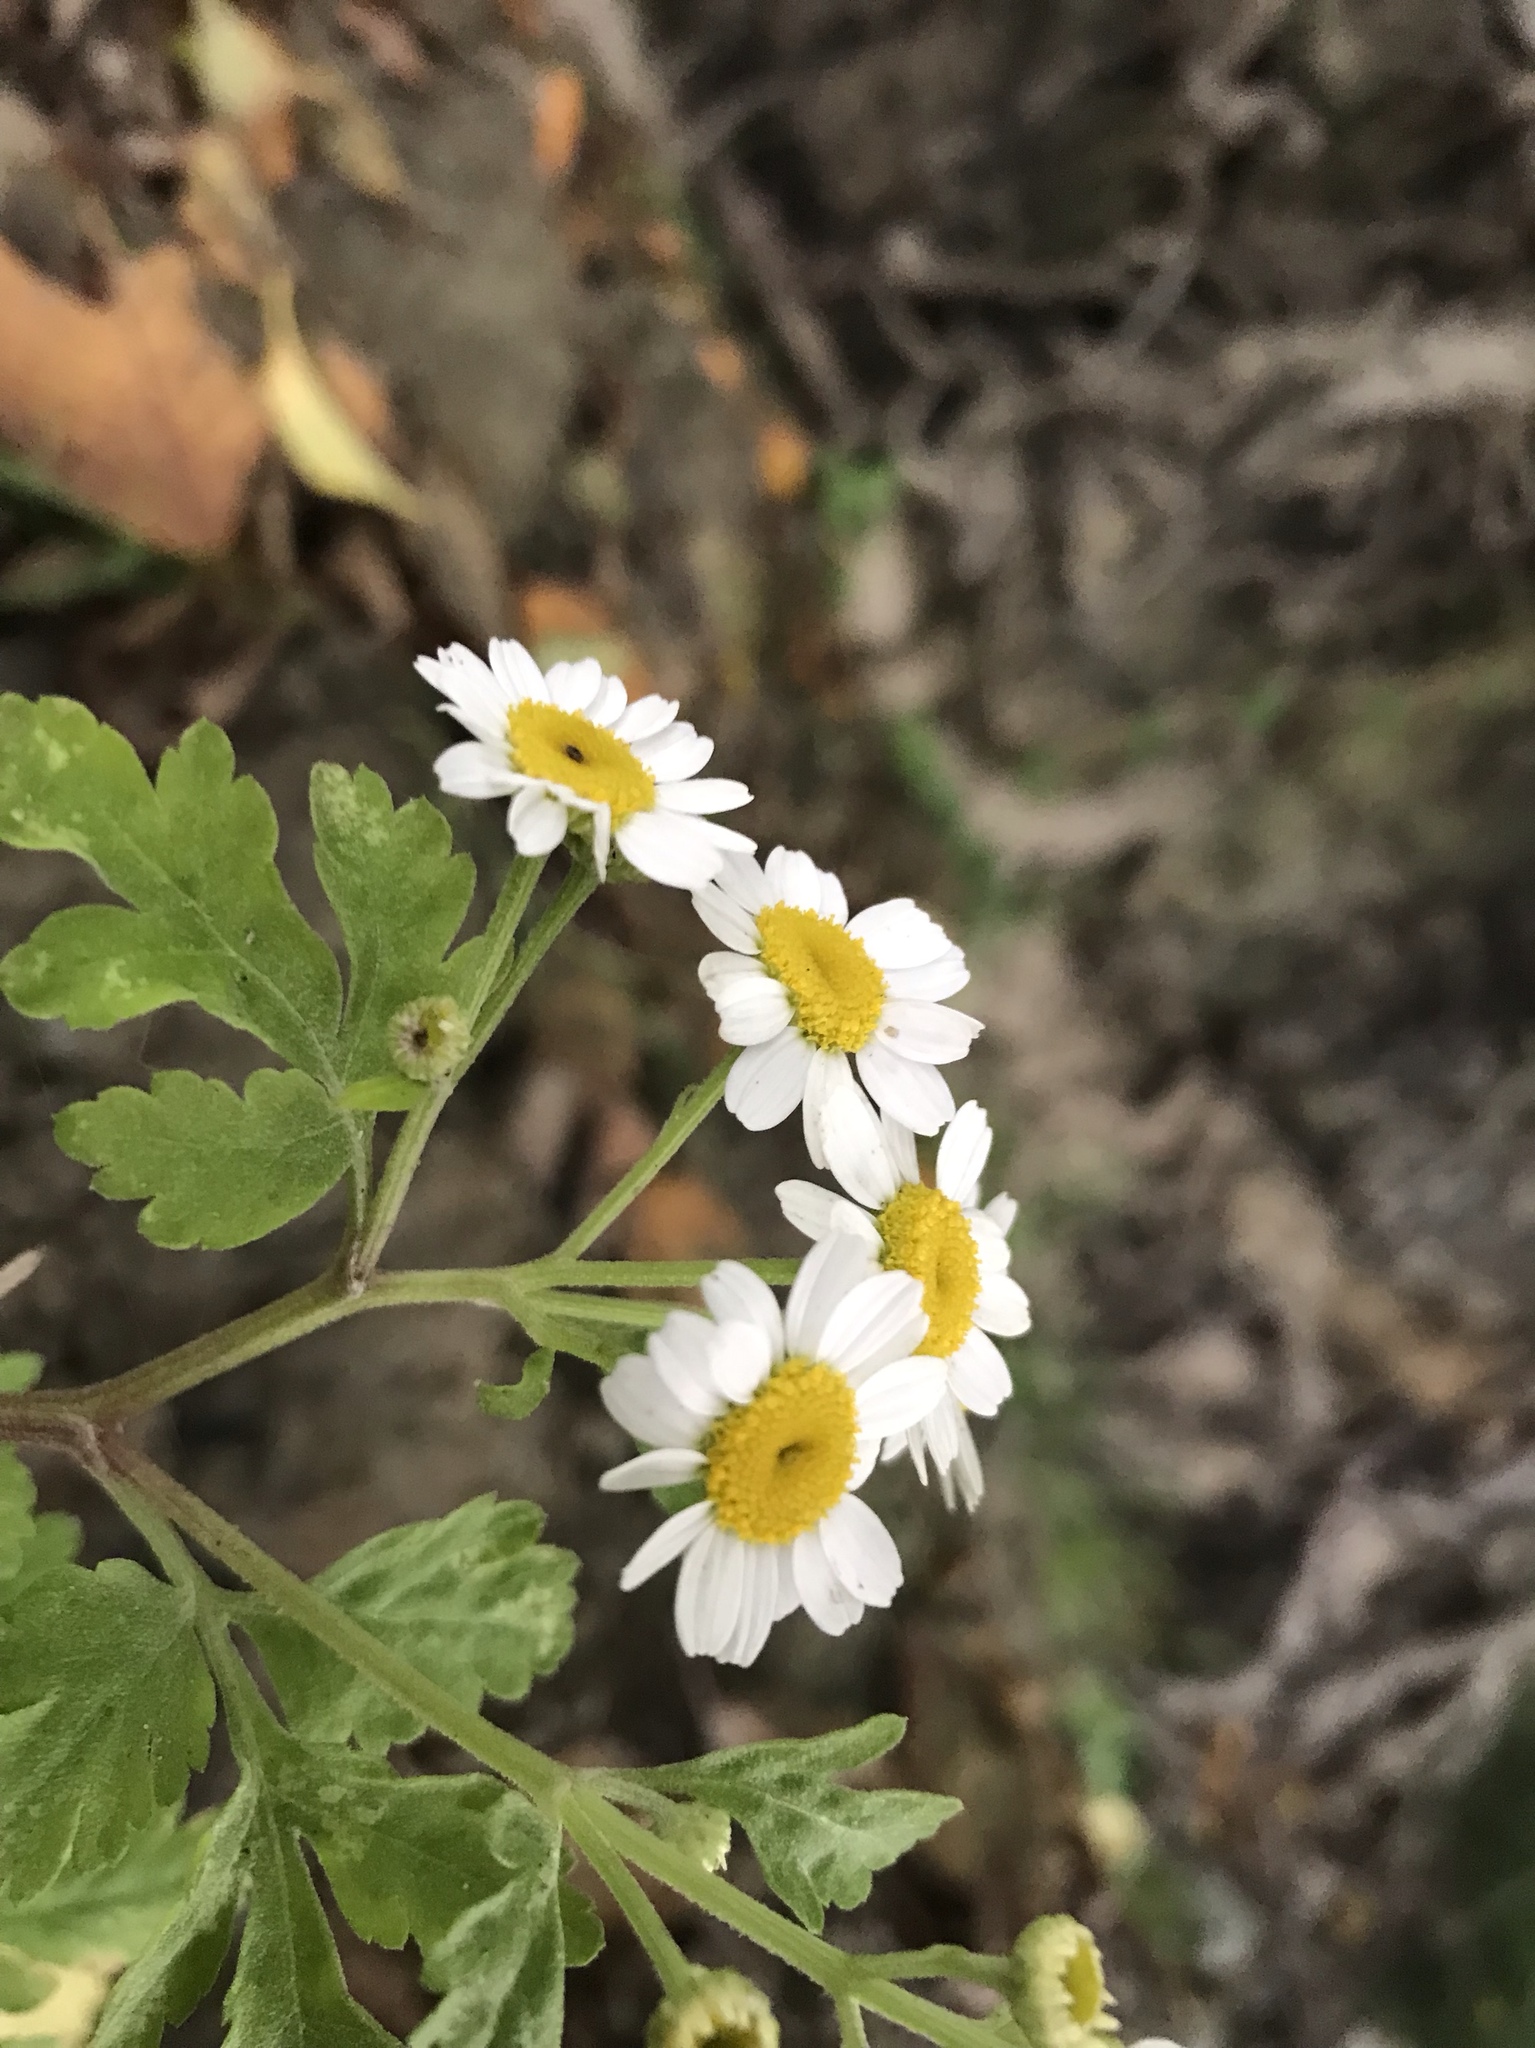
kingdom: Plantae
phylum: Tracheophyta
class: Magnoliopsida
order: Asterales
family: Asteraceae
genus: Tanacetum
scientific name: Tanacetum parthenium
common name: Feverfew
